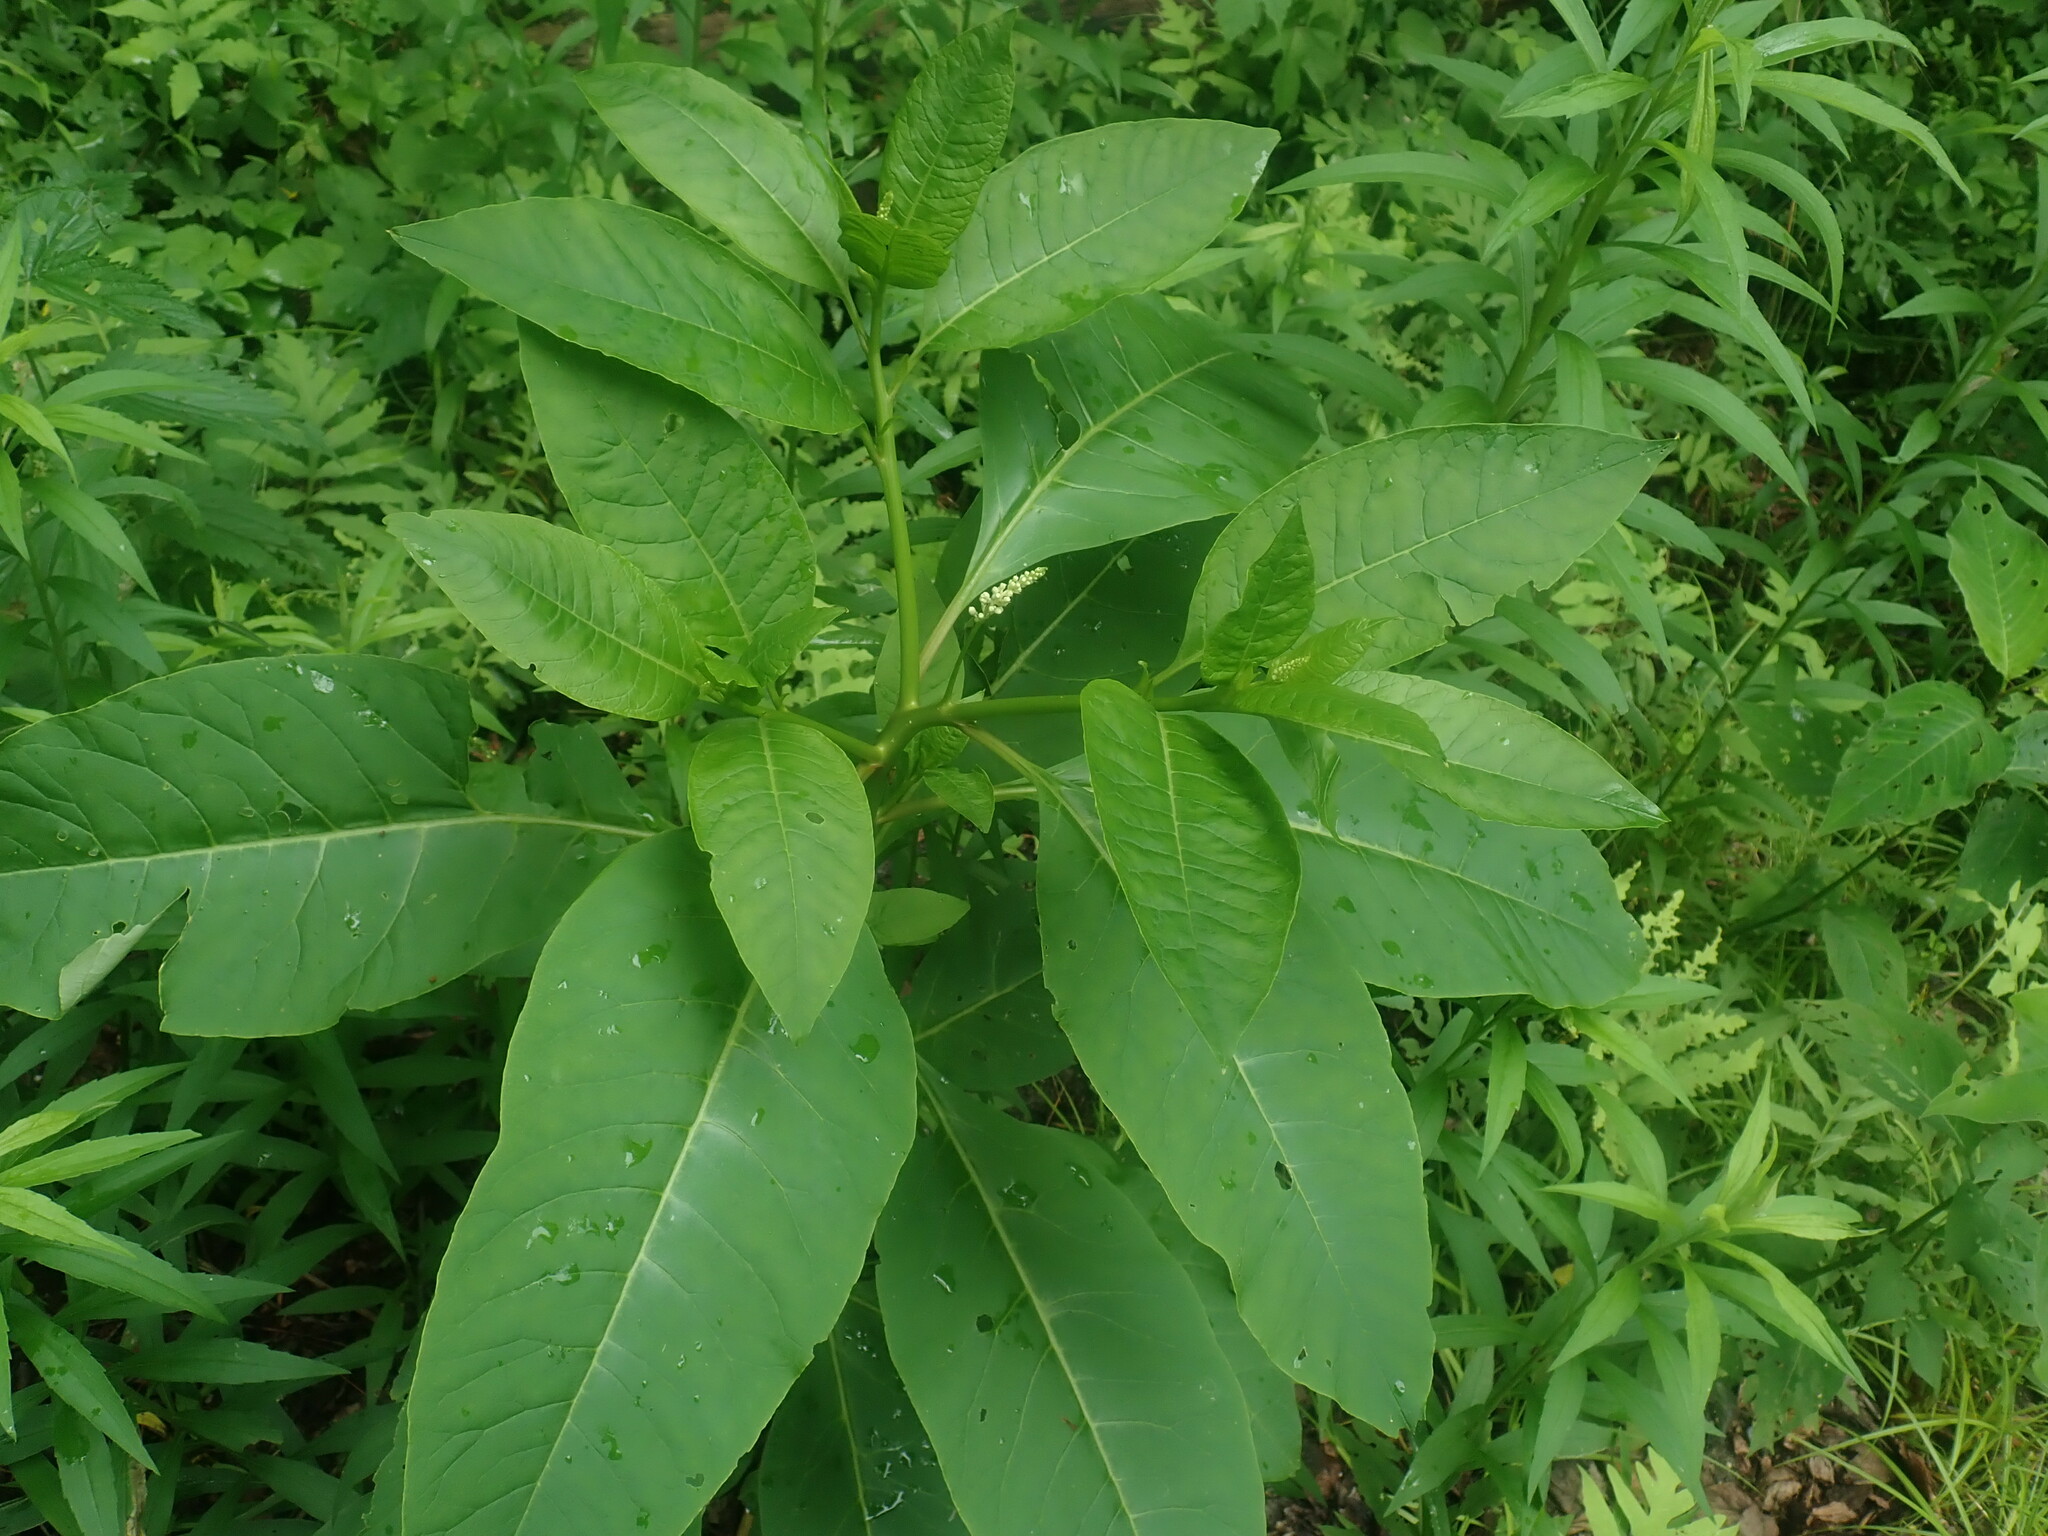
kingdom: Plantae
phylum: Tracheophyta
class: Magnoliopsida
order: Caryophyllales
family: Phytolaccaceae
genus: Phytolacca
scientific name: Phytolacca americana
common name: American pokeweed
